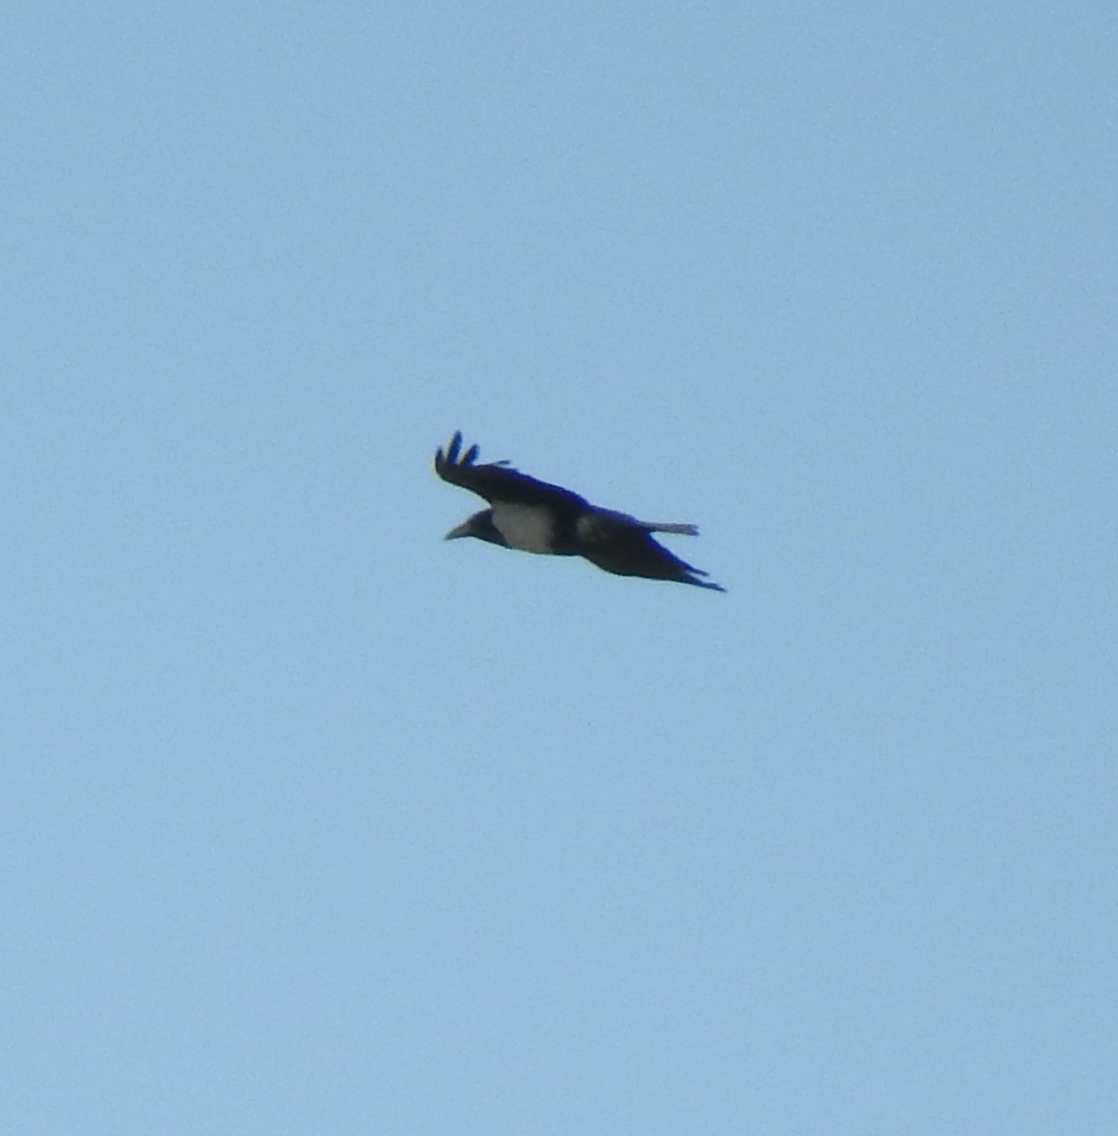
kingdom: Animalia
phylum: Chordata
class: Aves
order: Passeriformes
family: Corvidae
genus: Corvus
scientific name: Corvus albus
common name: Pied crow
